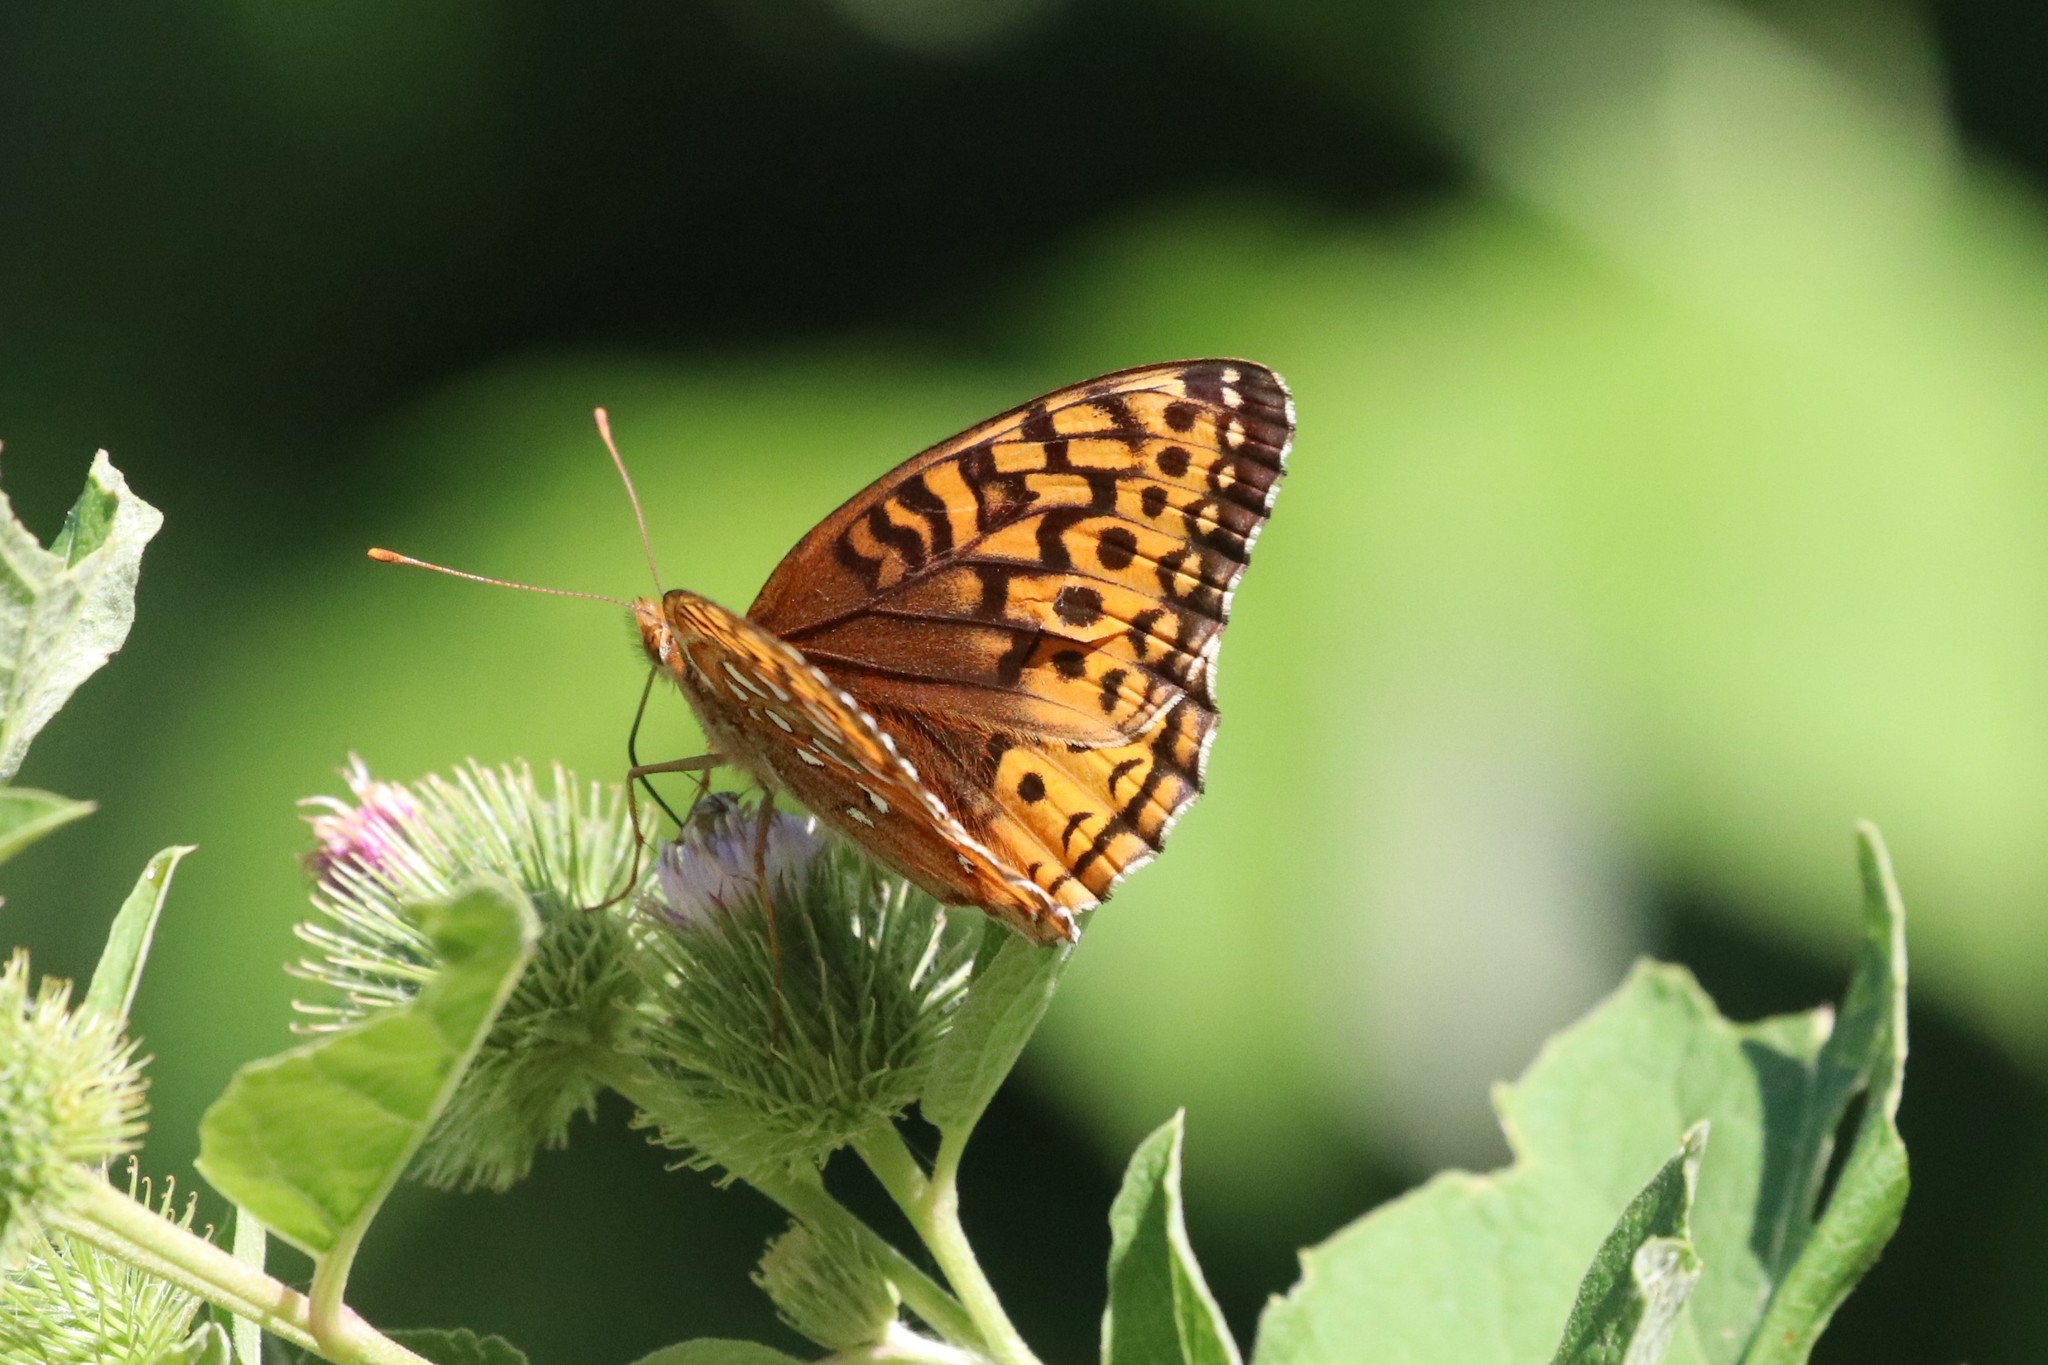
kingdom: Animalia
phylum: Arthropoda
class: Insecta
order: Lepidoptera
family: Nymphalidae
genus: Speyeria
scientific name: Speyeria cybele
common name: Great spangled fritillary
